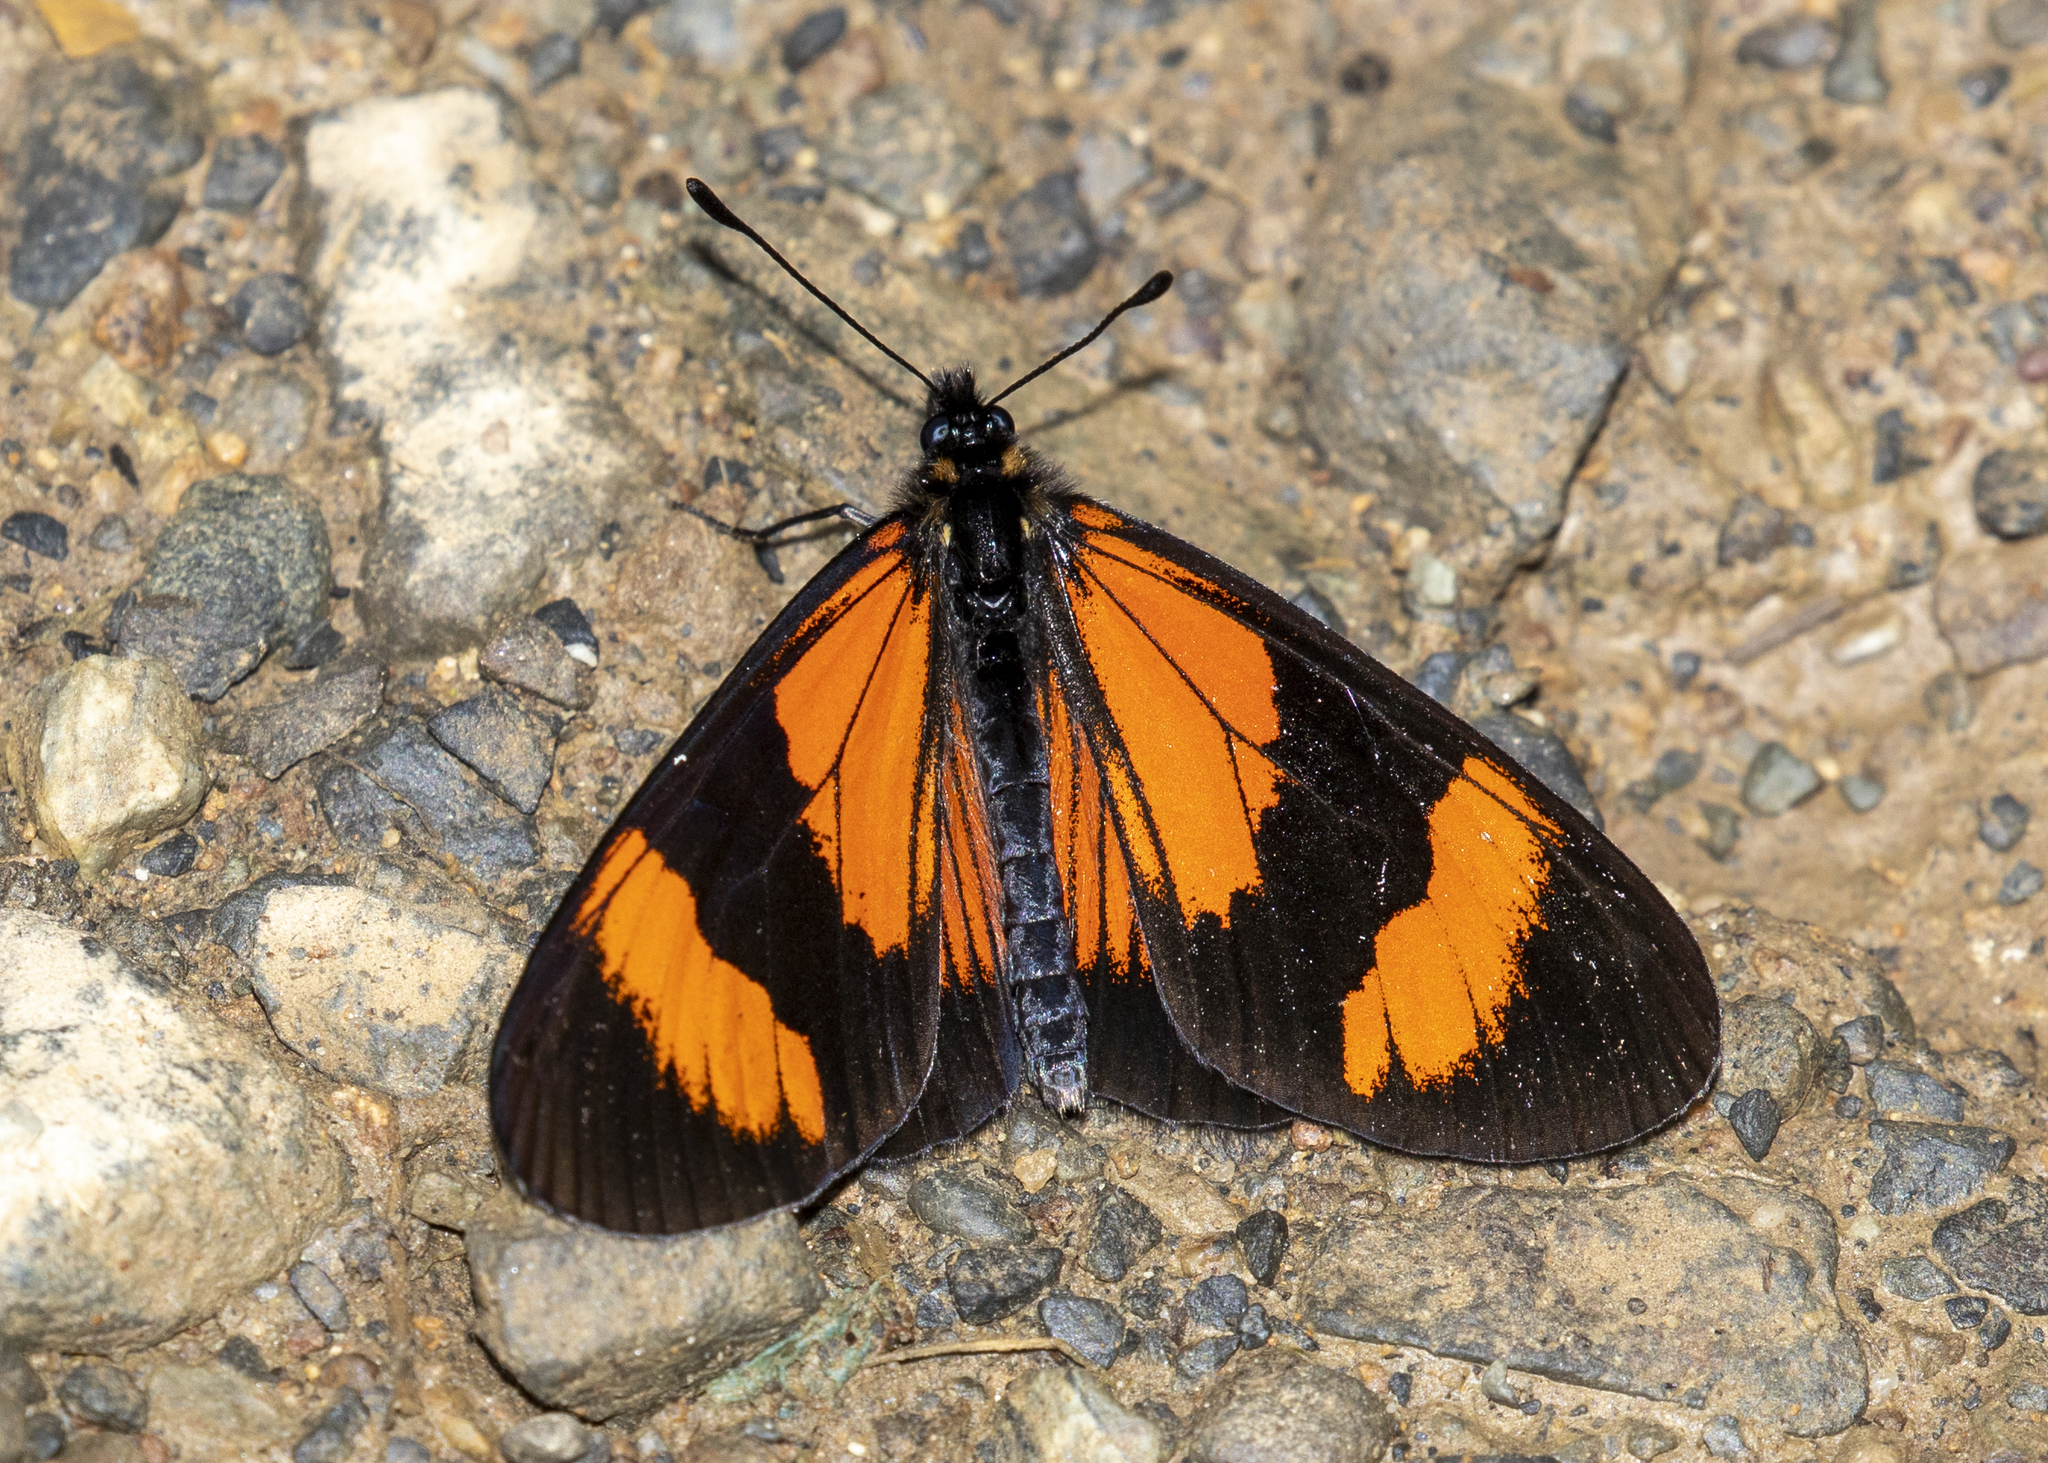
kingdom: Animalia
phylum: Arthropoda
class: Insecta
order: Lepidoptera
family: Nymphalidae
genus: Actinote
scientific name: Actinote negra
